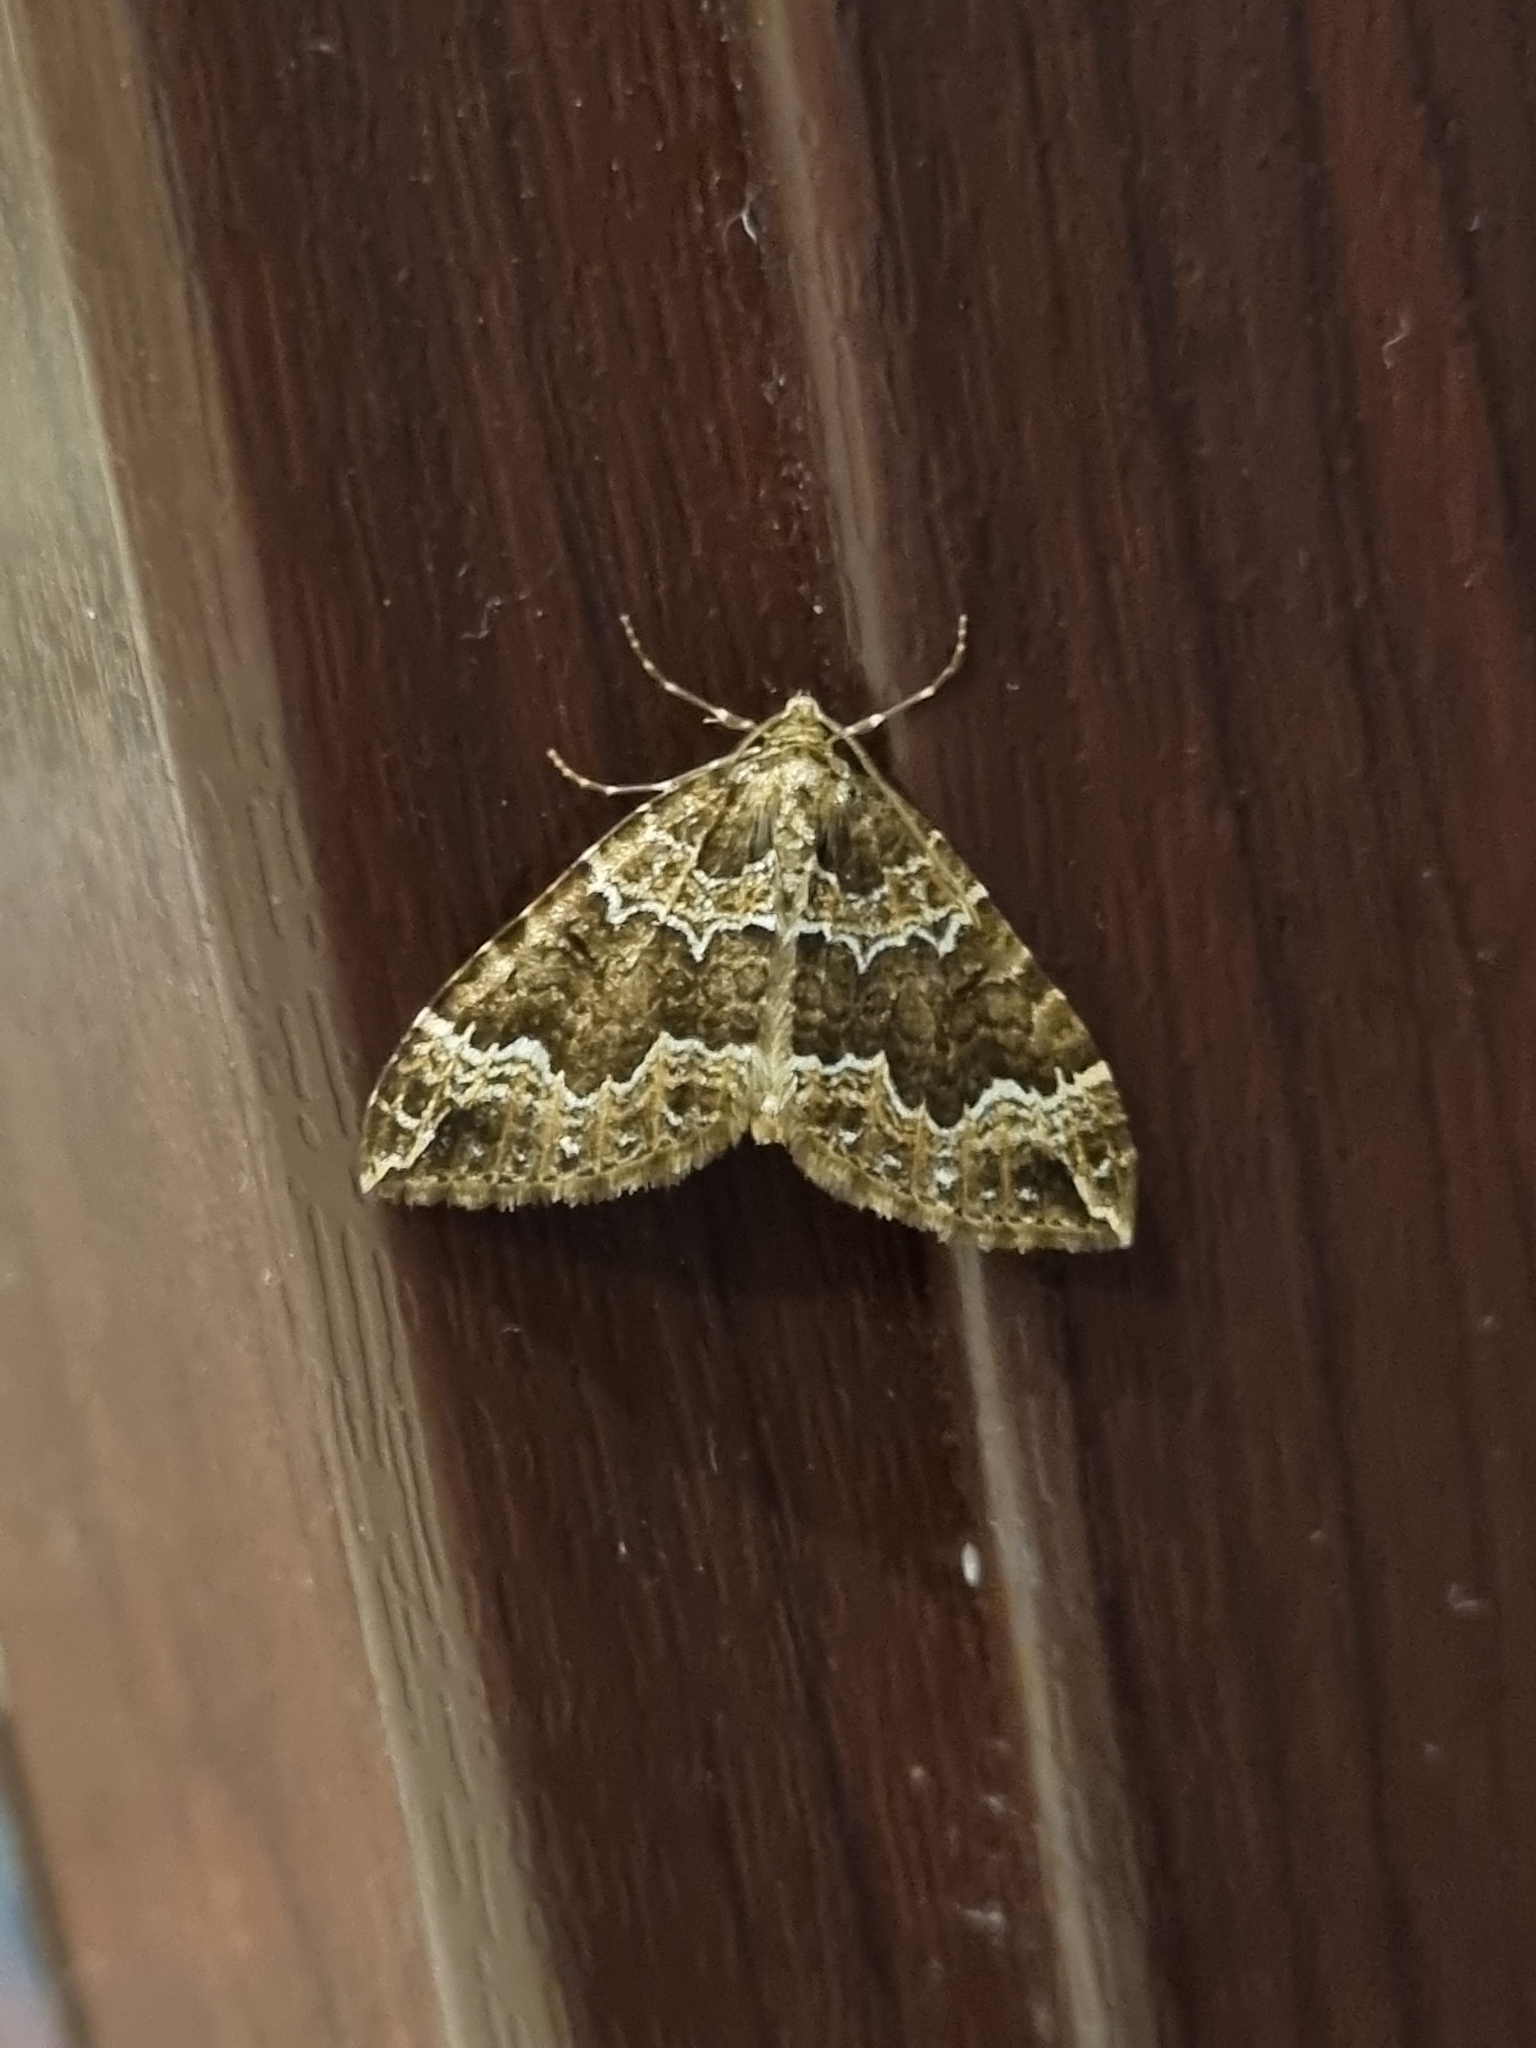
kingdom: Animalia
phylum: Arthropoda
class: Insecta
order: Lepidoptera
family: Geometridae
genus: Lampropteryx
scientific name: Lampropteryx suffumata
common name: Water carpet
